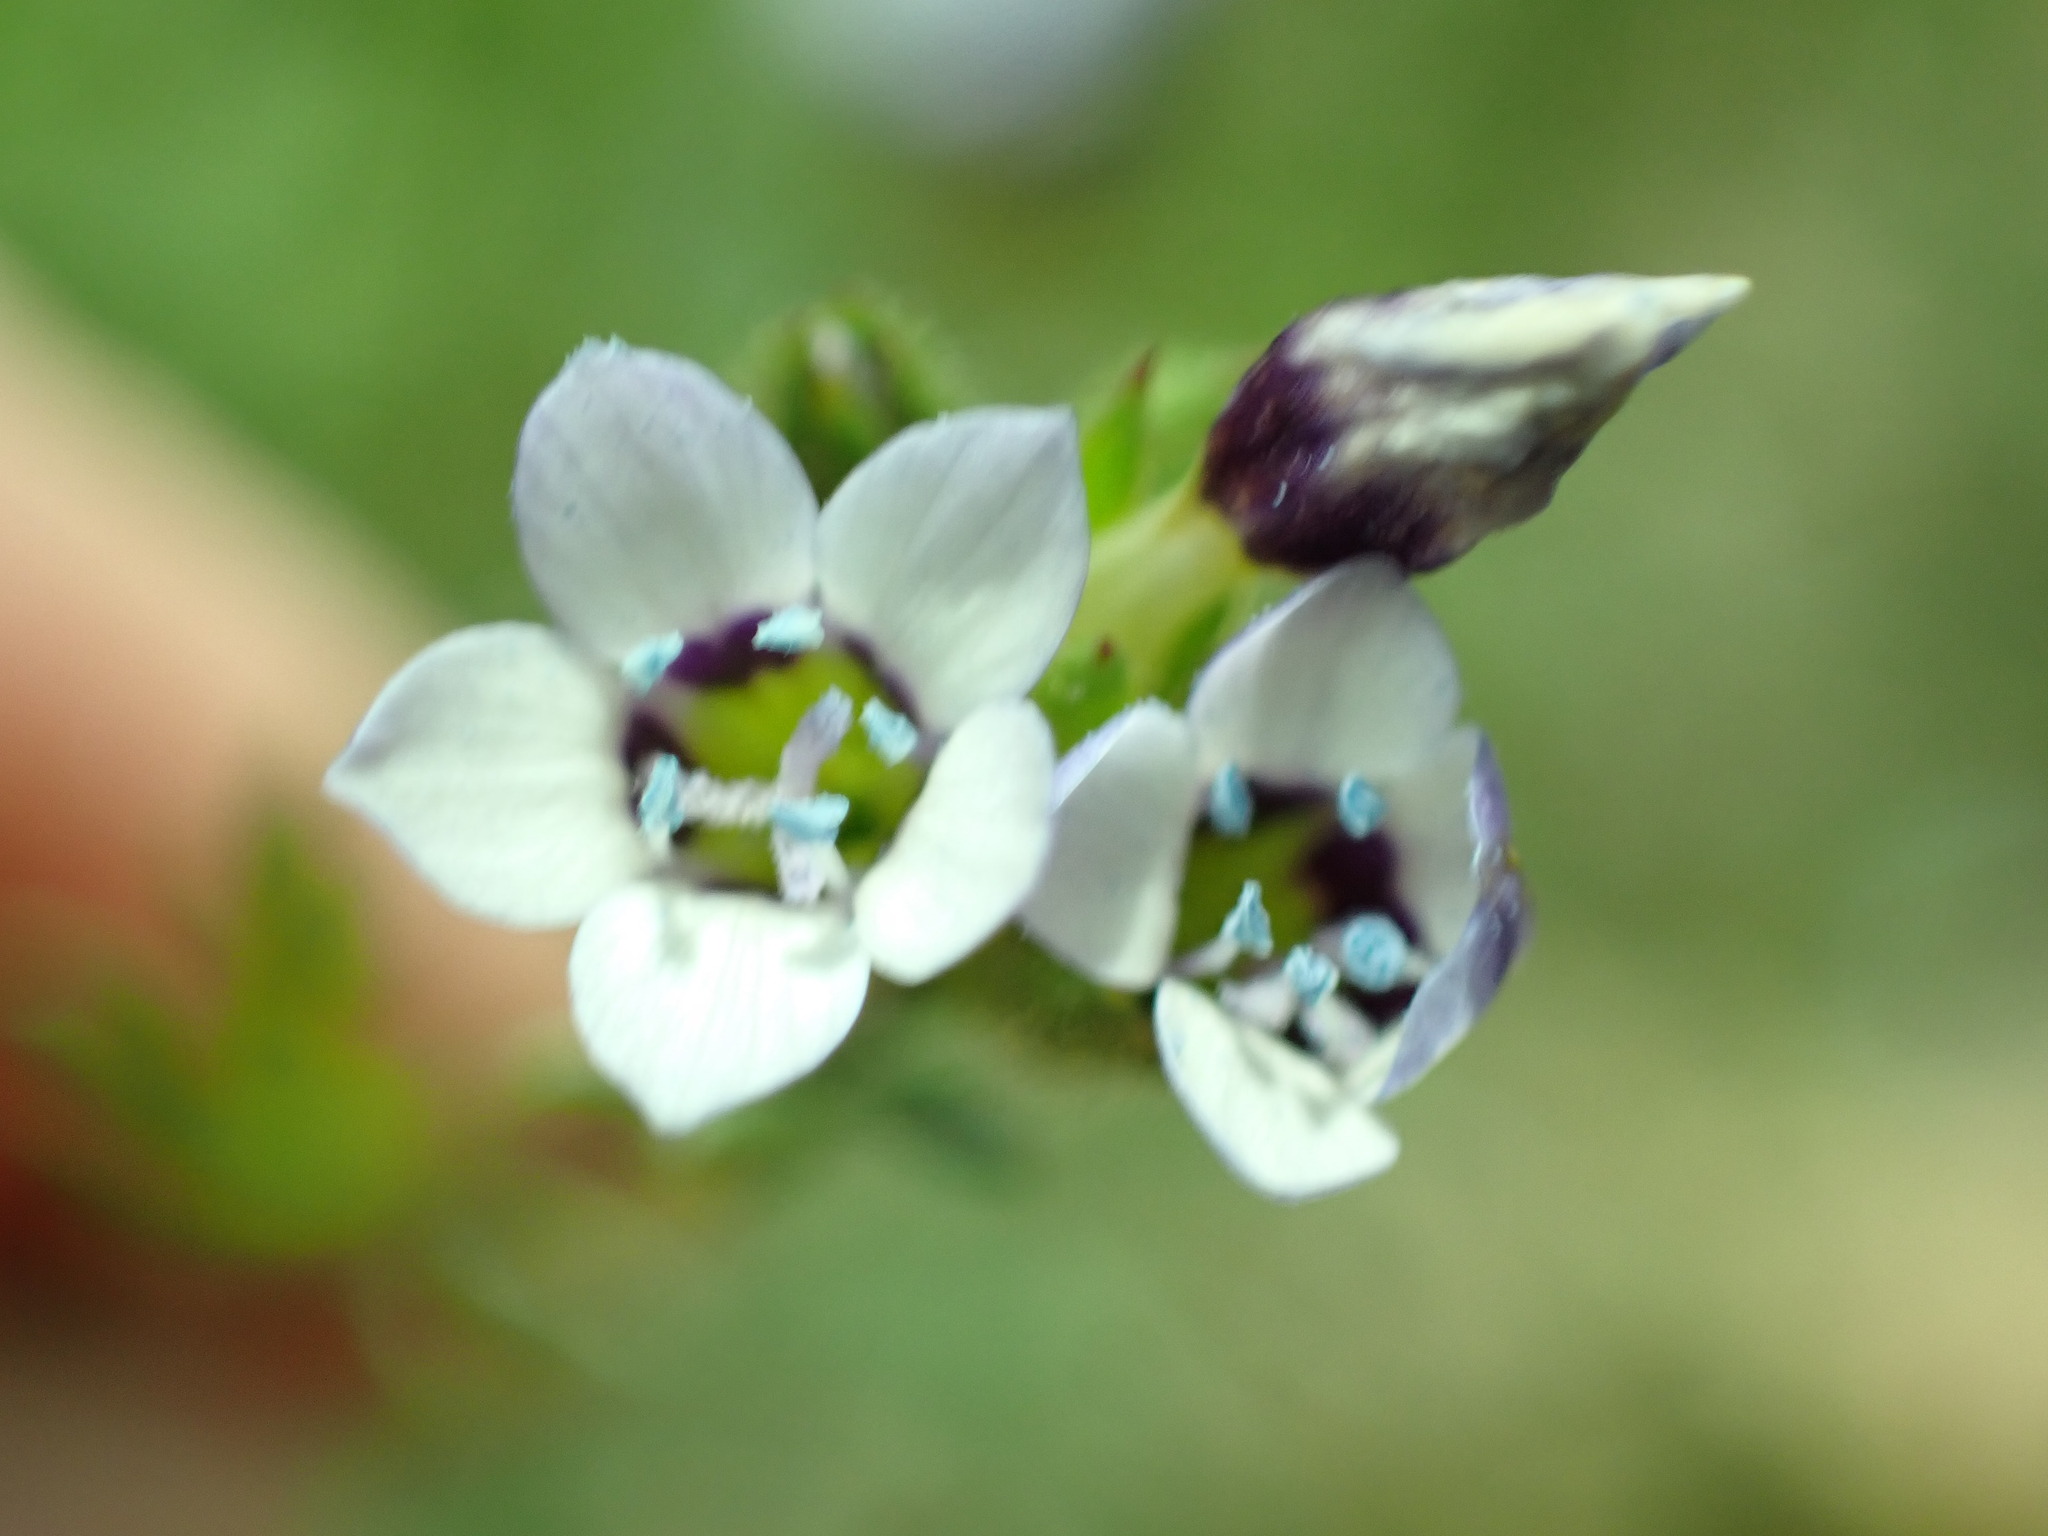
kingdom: Plantae
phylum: Tracheophyta
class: Magnoliopsida
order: Ericales
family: Polemoniaceae
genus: Gilia
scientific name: Gilia clivorum
